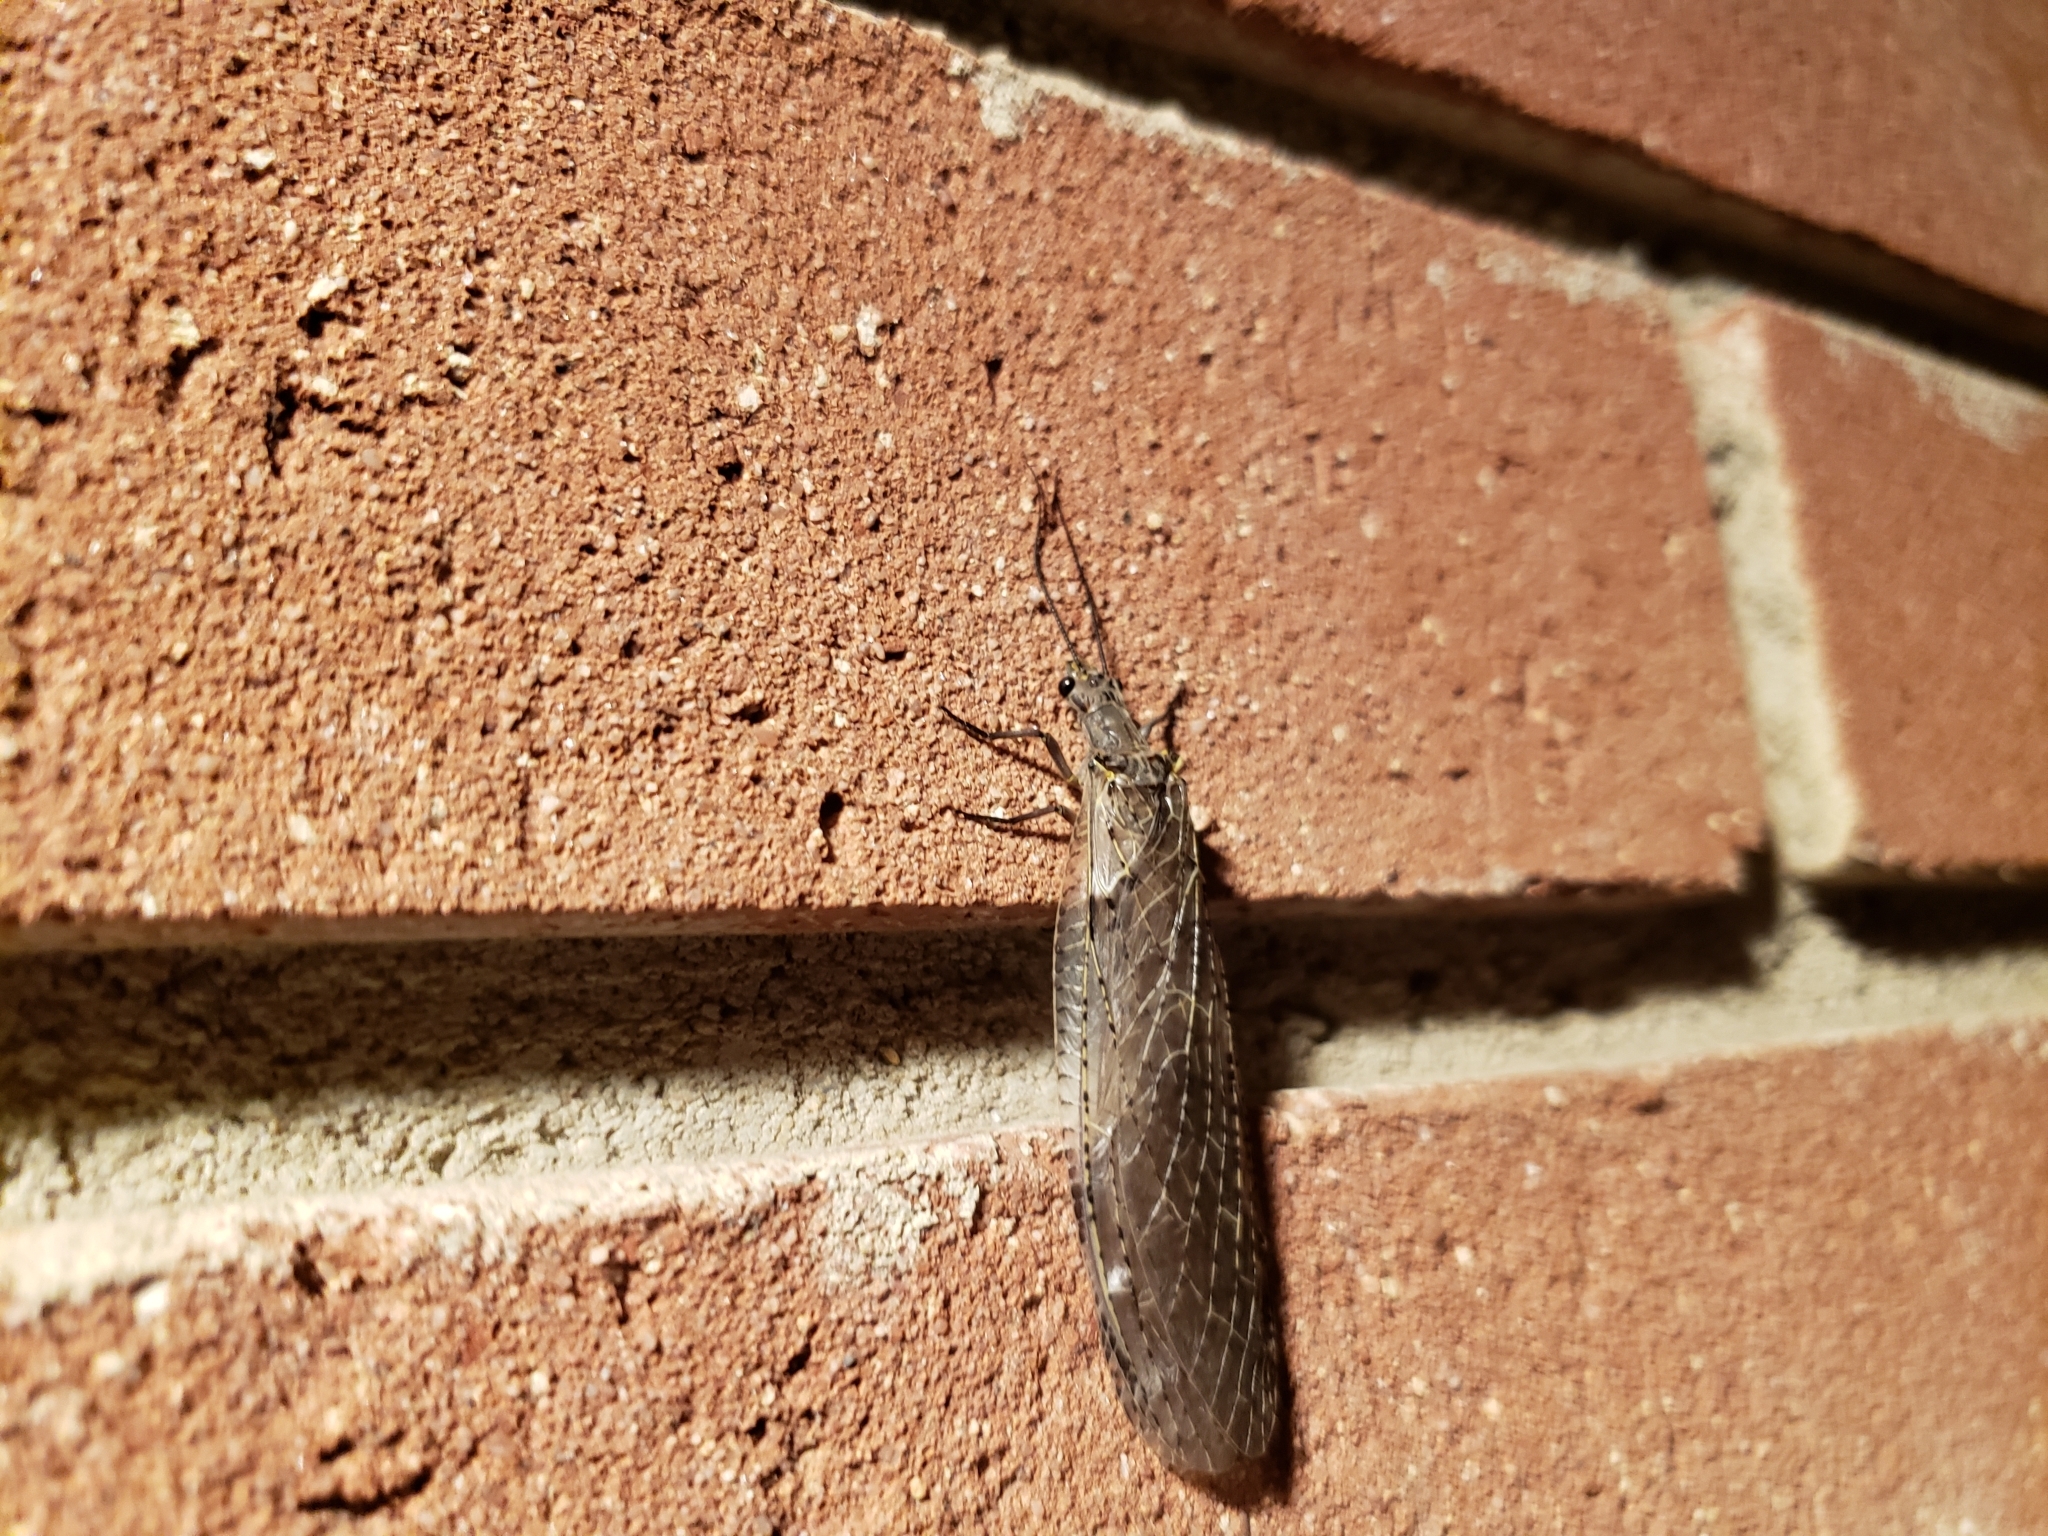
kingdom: Animalia
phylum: Arthropoda
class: Insecta
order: Megaloptera
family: Corydalidae
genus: Chauliodes
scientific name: Chauliodes rastricornis
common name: Spring fishfly
